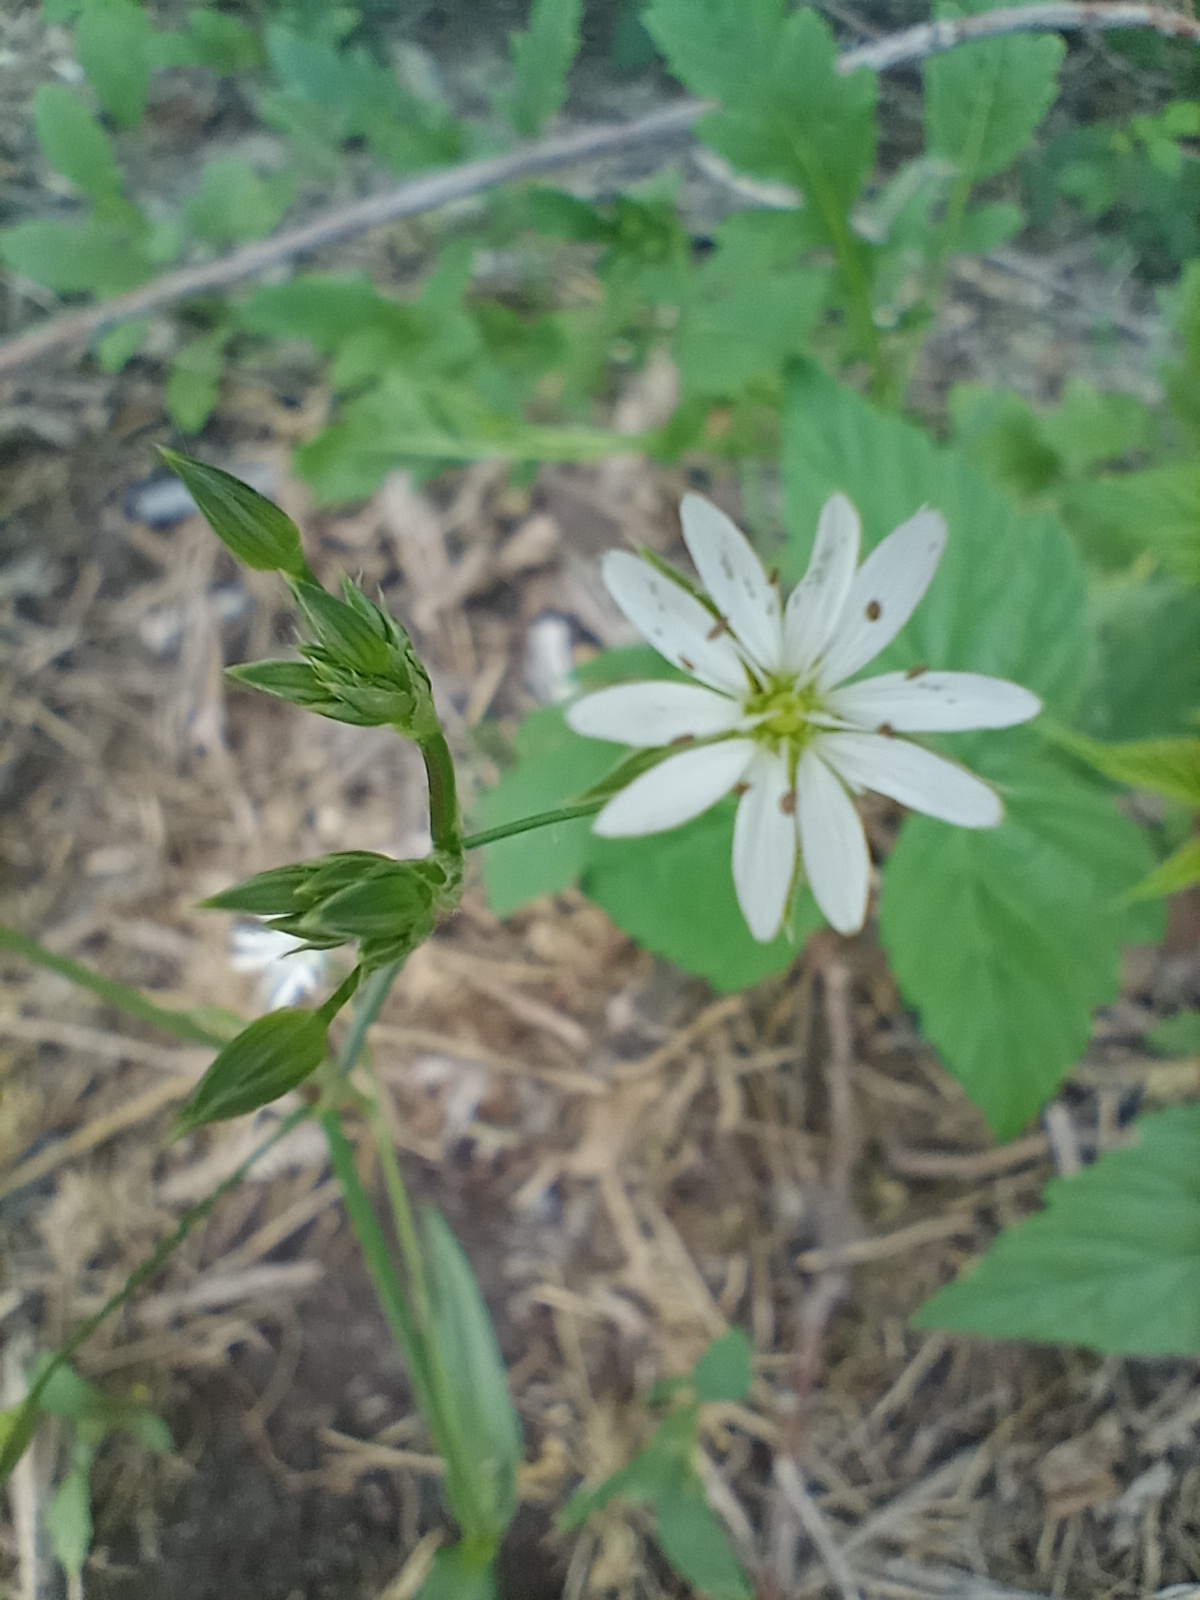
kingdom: Plantae
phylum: Tracheophyta
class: Magnoliopsida
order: Caryophyllales
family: Caryophyllaceae
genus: Stellaria
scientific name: Stellaria graminea
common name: Grass-like starwort
